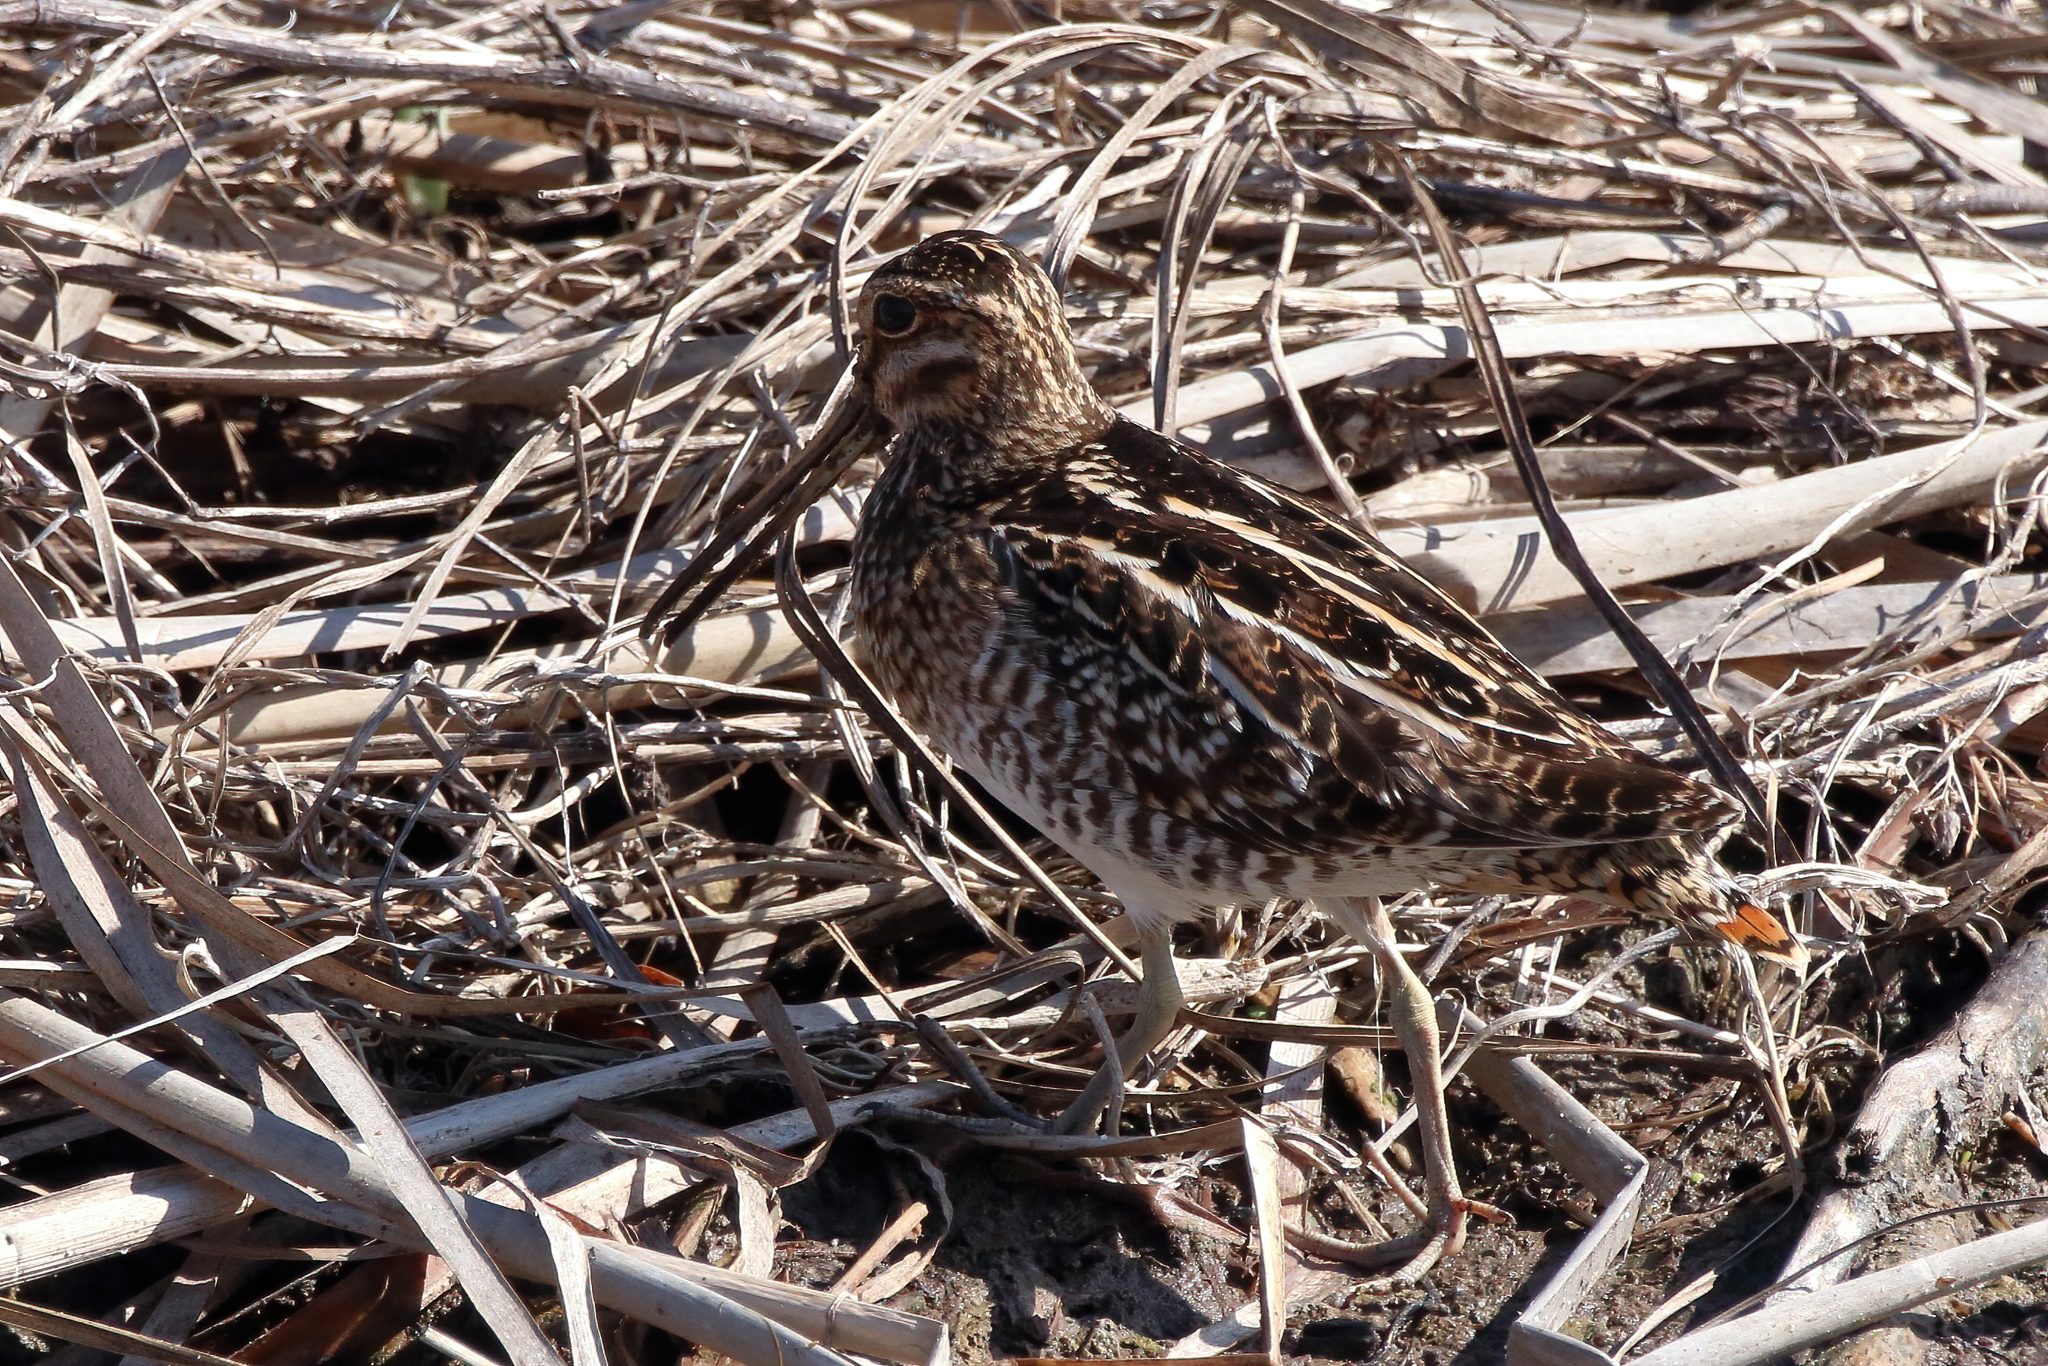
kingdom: Animalia
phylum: Chordata
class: Aves
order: Charadriiformes
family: Scolopacidae
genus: Gallinago
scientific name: Gallinago delicata
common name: Wilson's snipe
